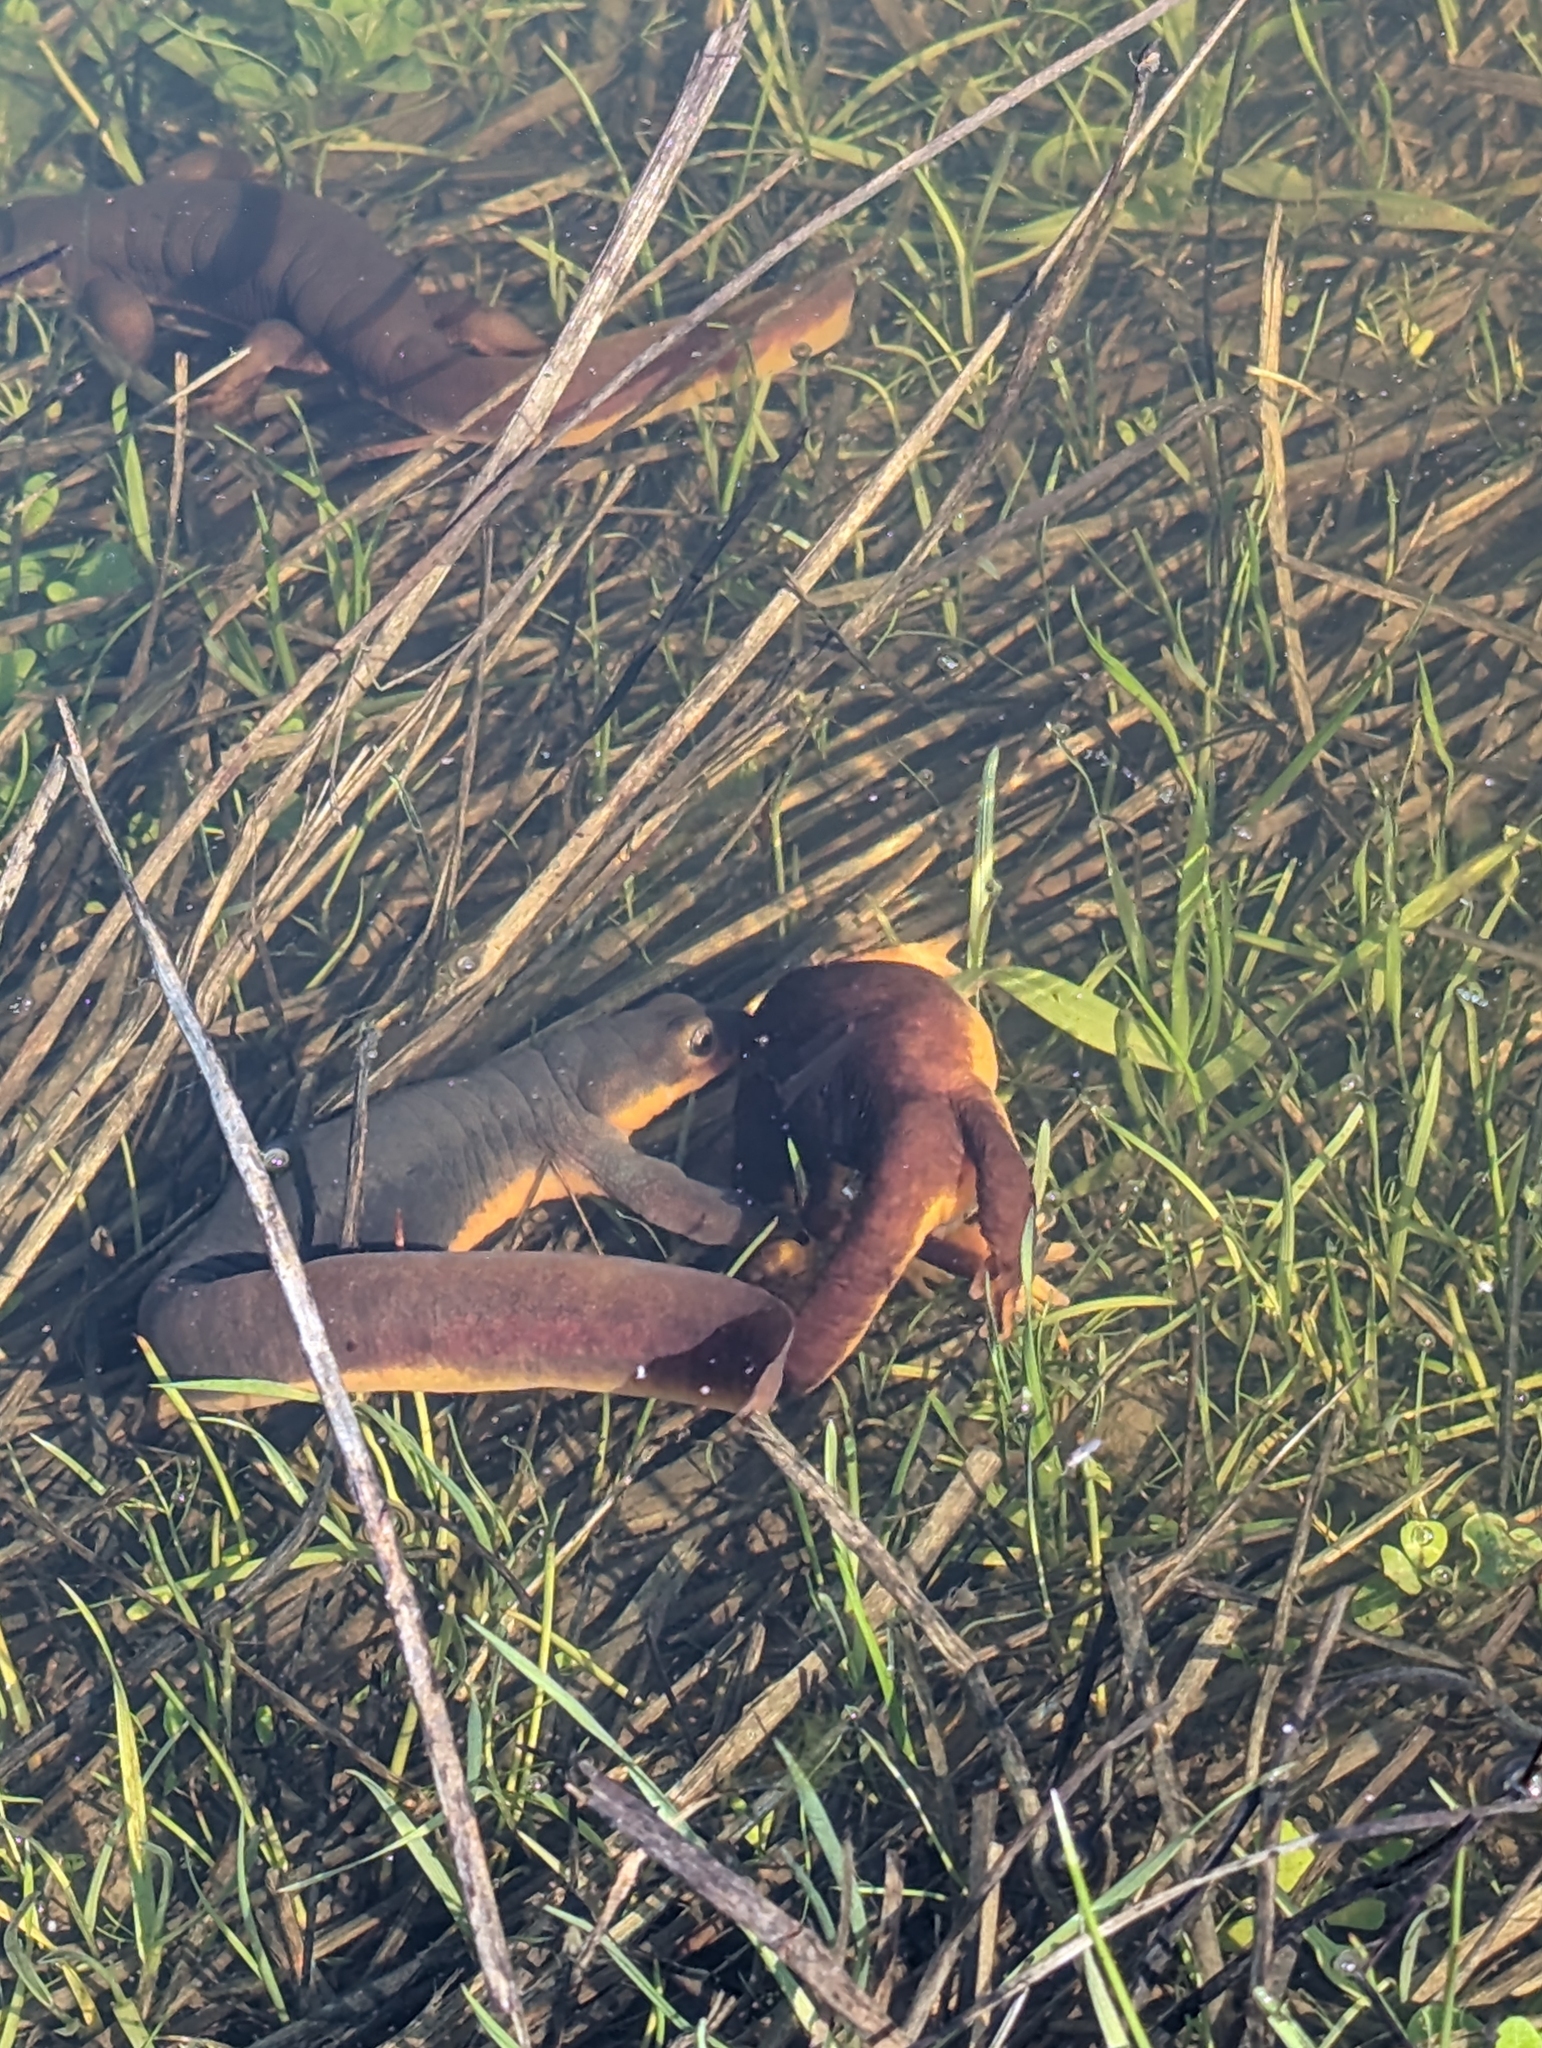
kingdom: Animalia
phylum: Chordata
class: Amphibia
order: Caudata
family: Salamandridae
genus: Taricha
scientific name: Taricha torosa
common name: California newt
